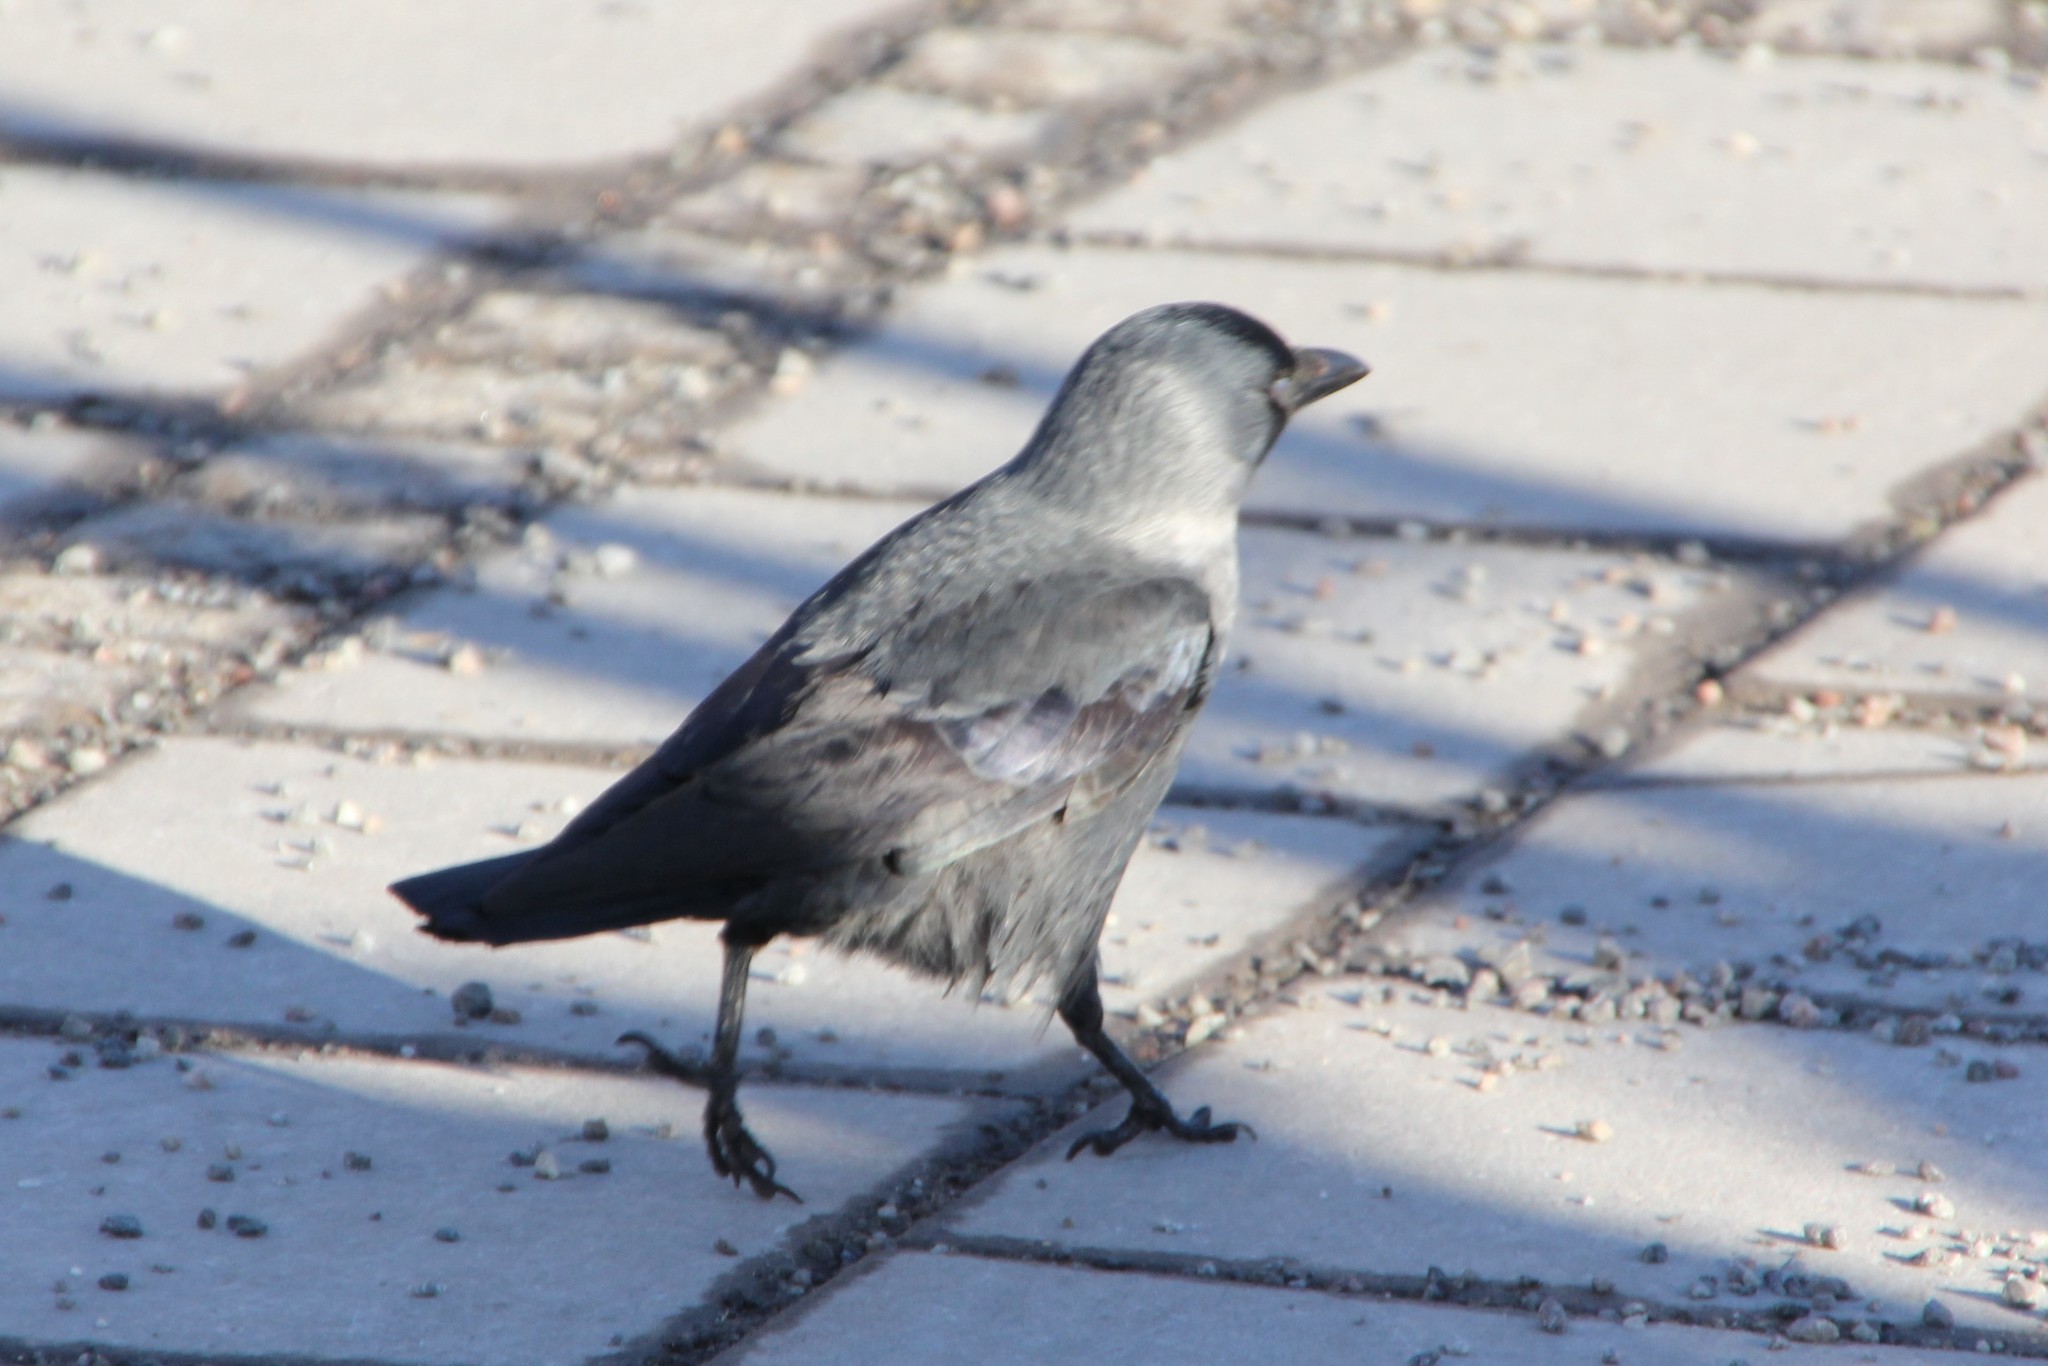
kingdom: Animalia
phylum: Chordata
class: Aves
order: Passeriformes
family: Corvidae
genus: Coloeus
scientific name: Coloeus monedula
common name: Western jackdaw
